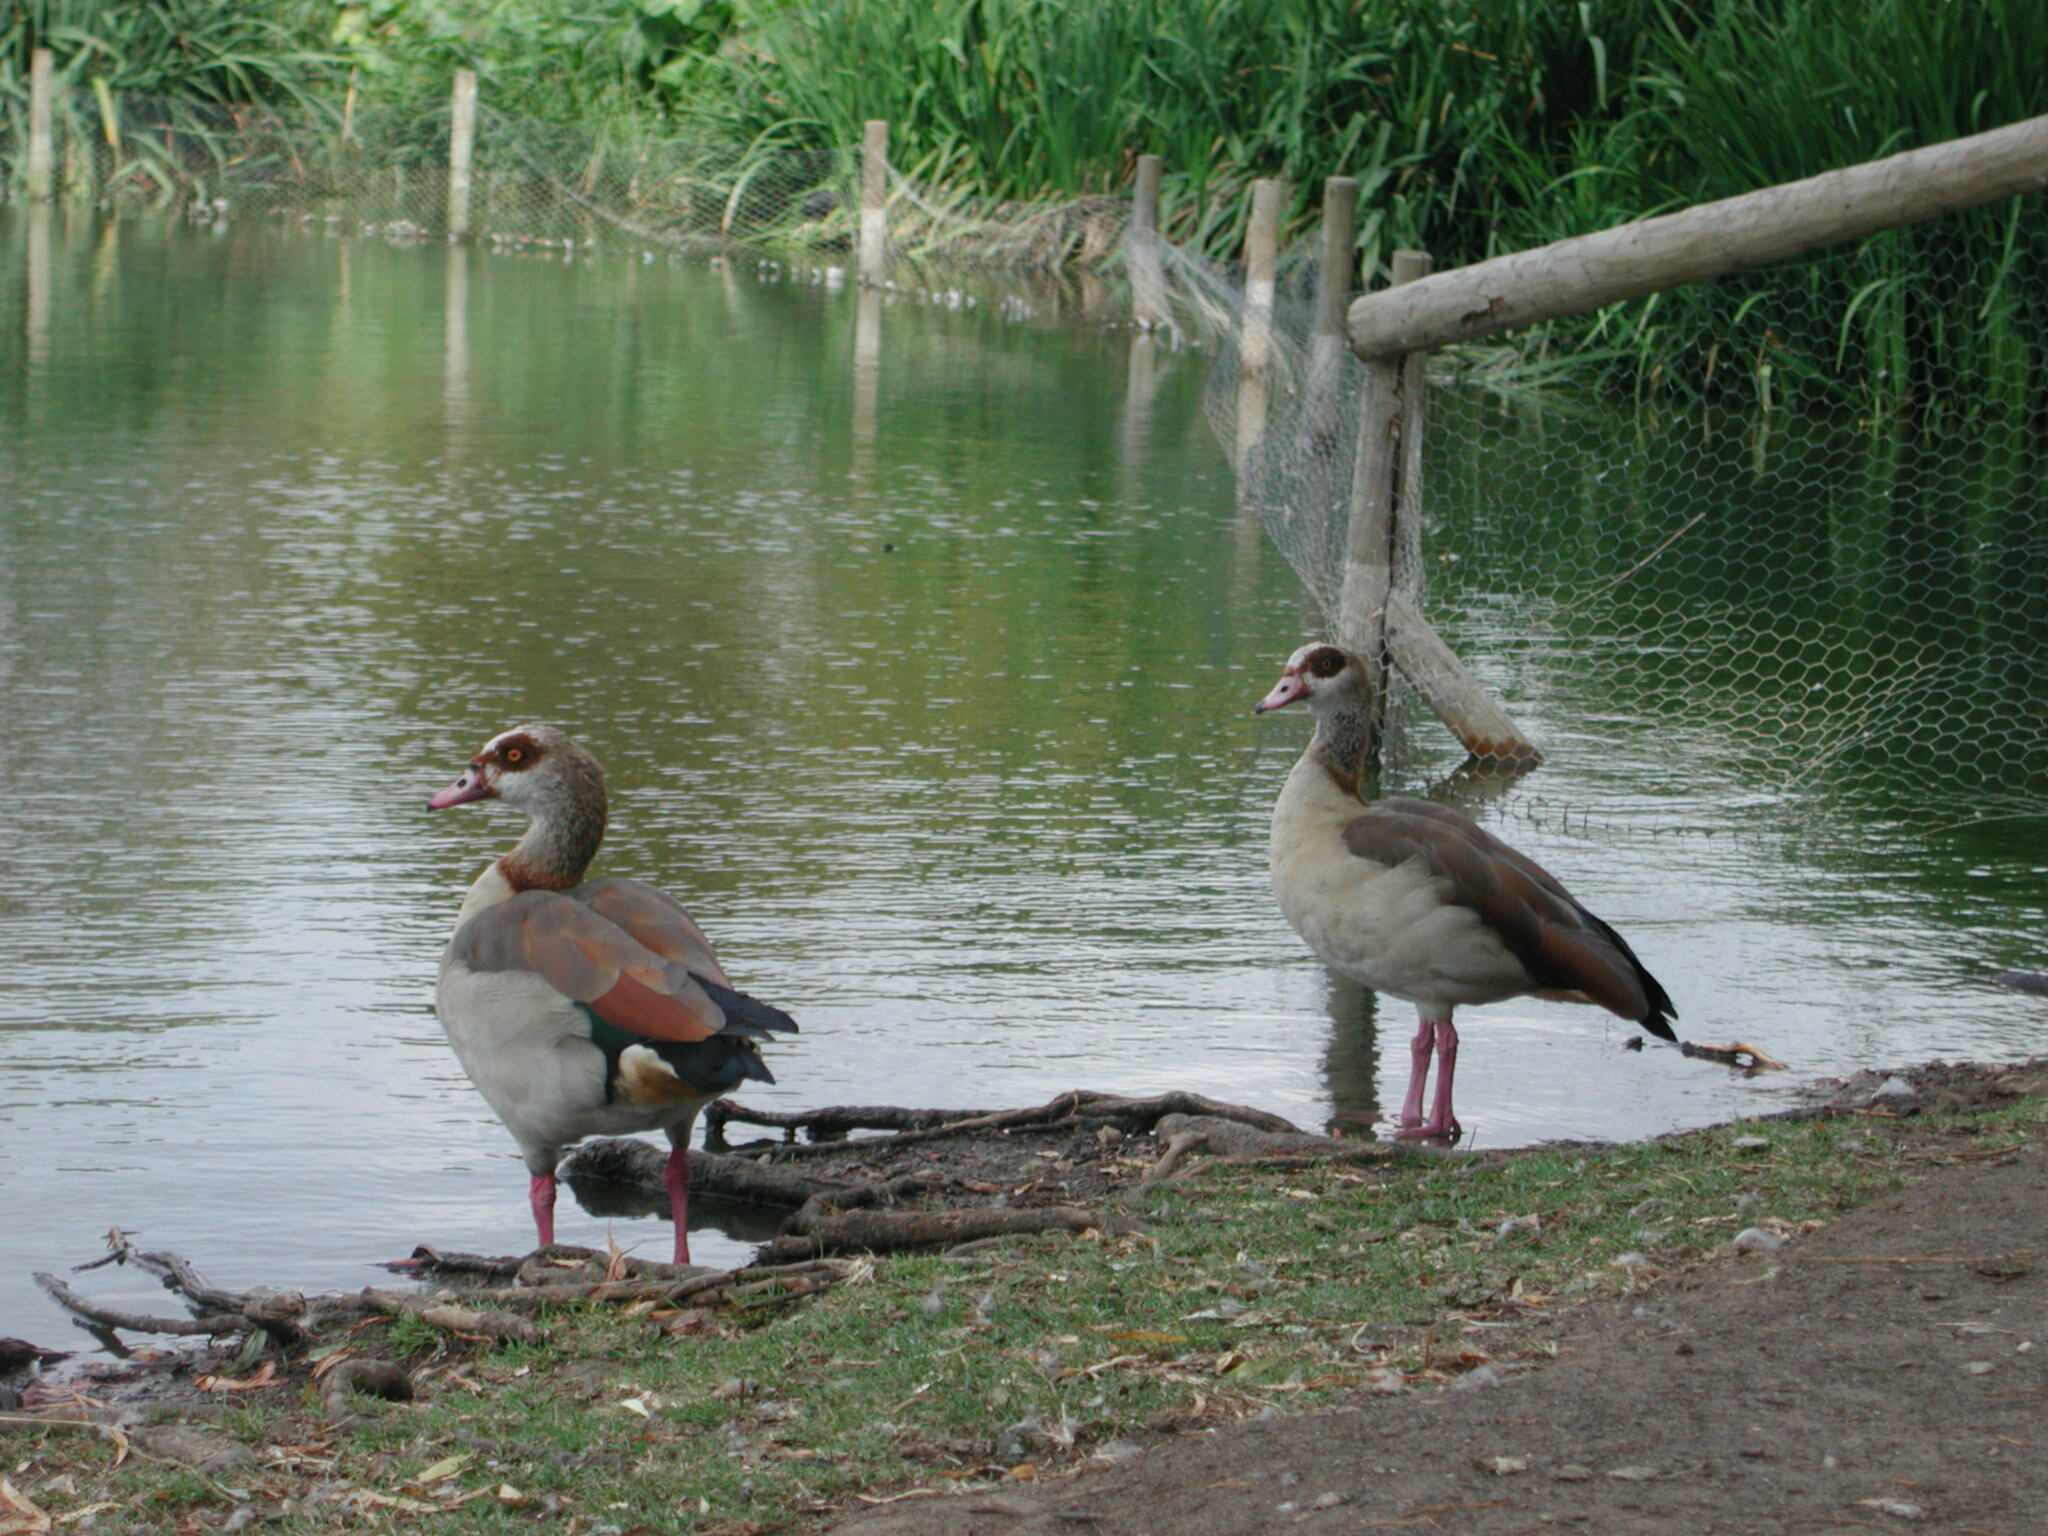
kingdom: Animalia
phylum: Chordata
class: Aves
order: Anseriformes
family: Anatidae
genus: Alopochen
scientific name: Alopochen aegyptiaca
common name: Egyptian goose
